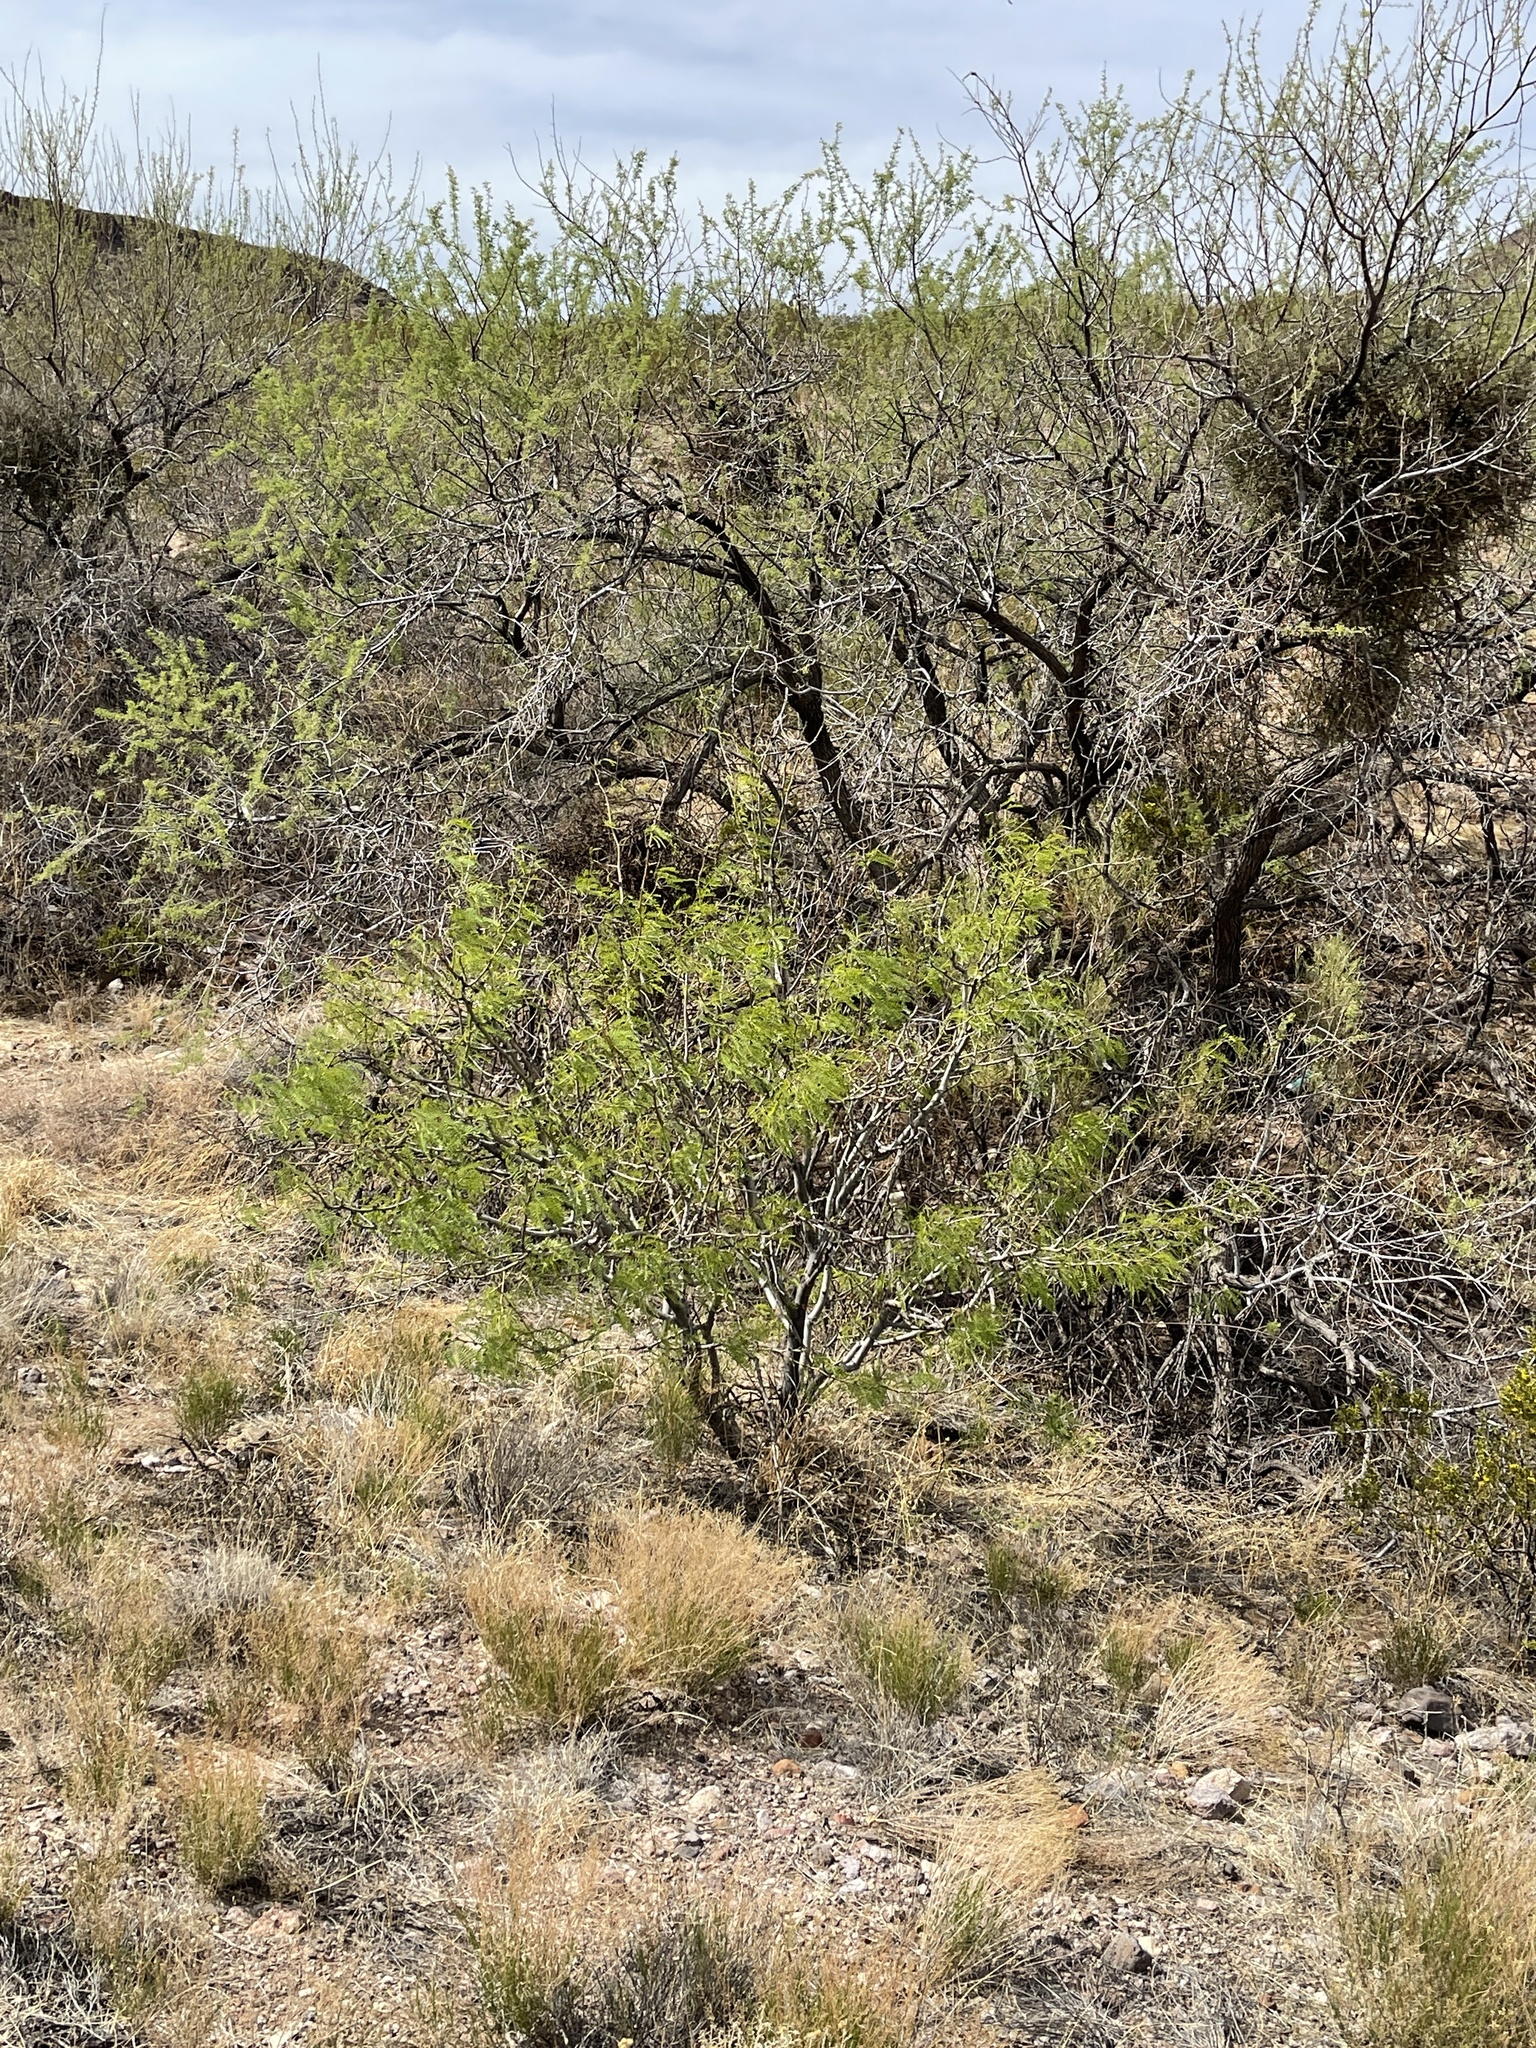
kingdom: Plantae
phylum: Tracheophyta
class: Magnoliopsida
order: Fabales
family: Fabaceae
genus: Prosopis
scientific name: Prosopis glandulosa
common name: Honey mesquite
